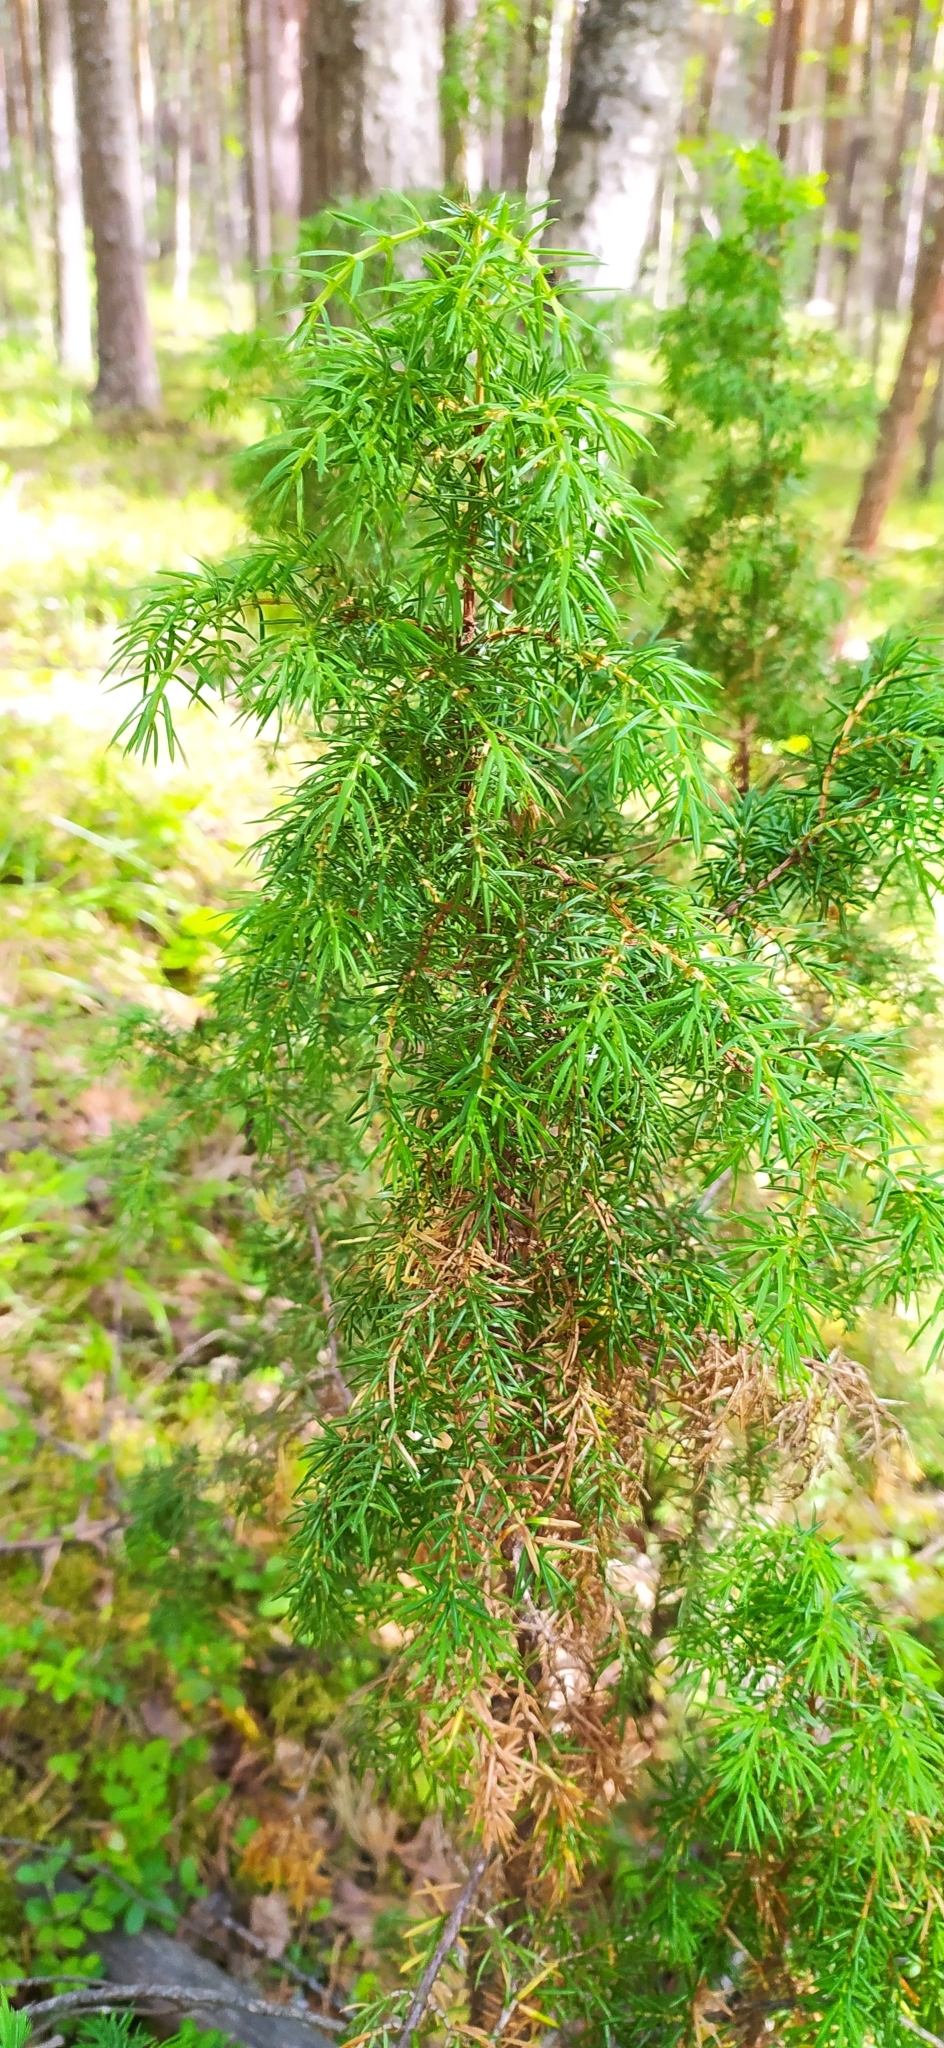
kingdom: Plantae
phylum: Tracheophyta
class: Pinopsida
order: Pinales
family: Cupressaceae
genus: Juniperus
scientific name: Juniperus communis
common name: Common juniper
